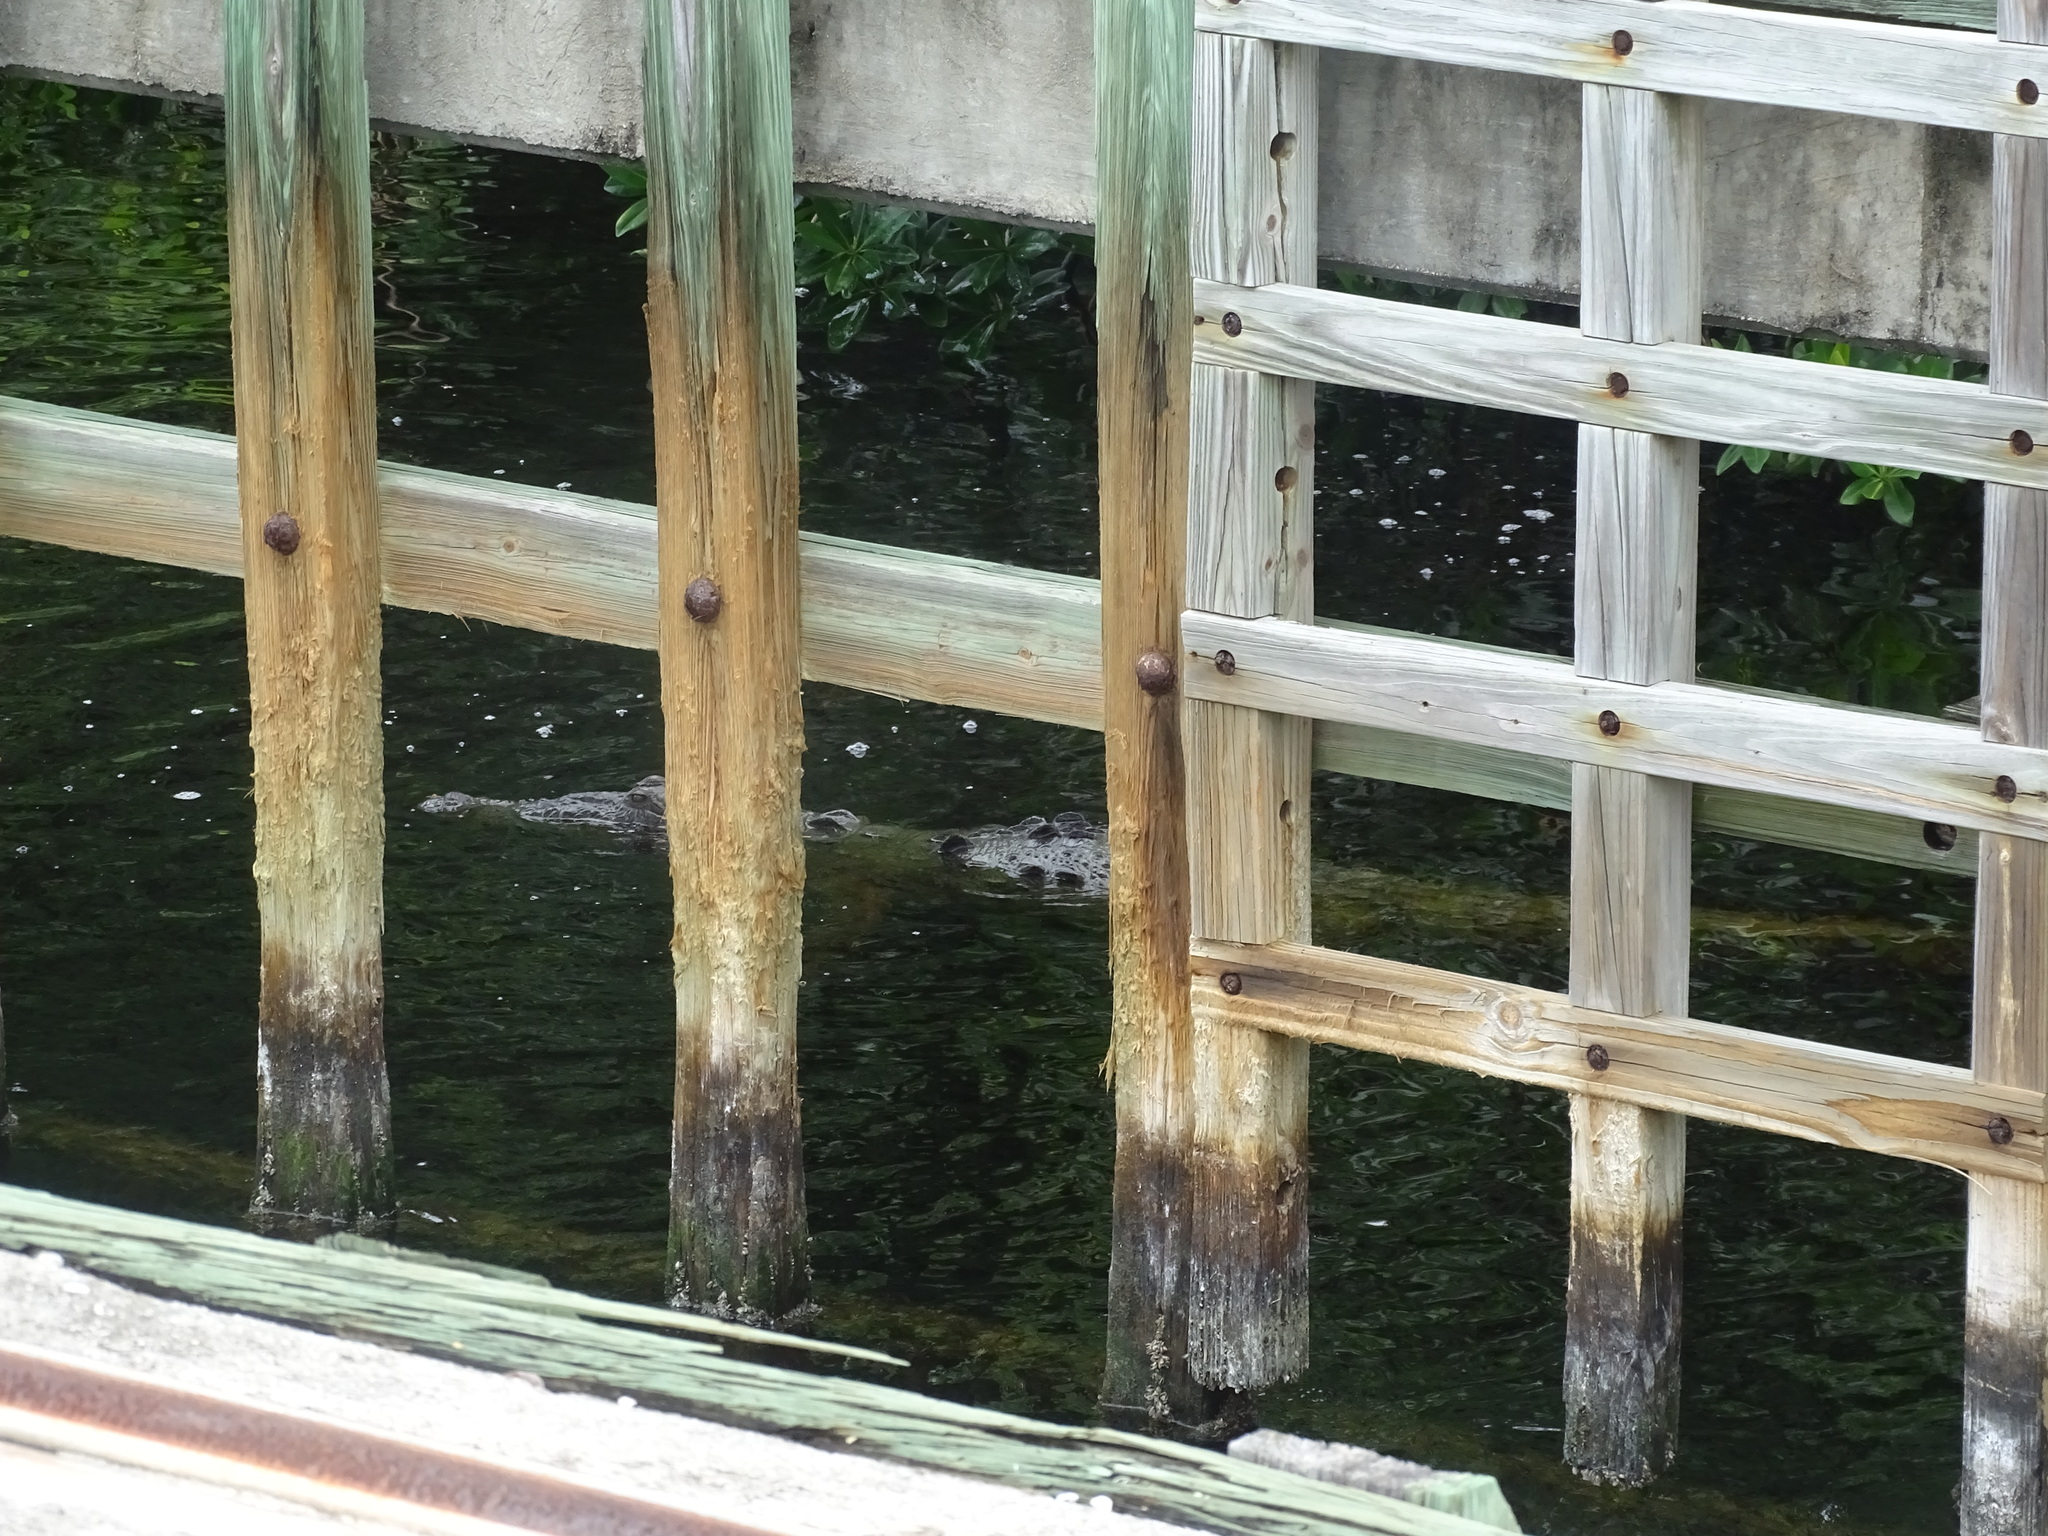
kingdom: Animalia
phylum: Chordata
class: Crocodylia
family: Crocodylidae
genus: Crocodylus
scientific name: Crocodylus acutus
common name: American crocodile
